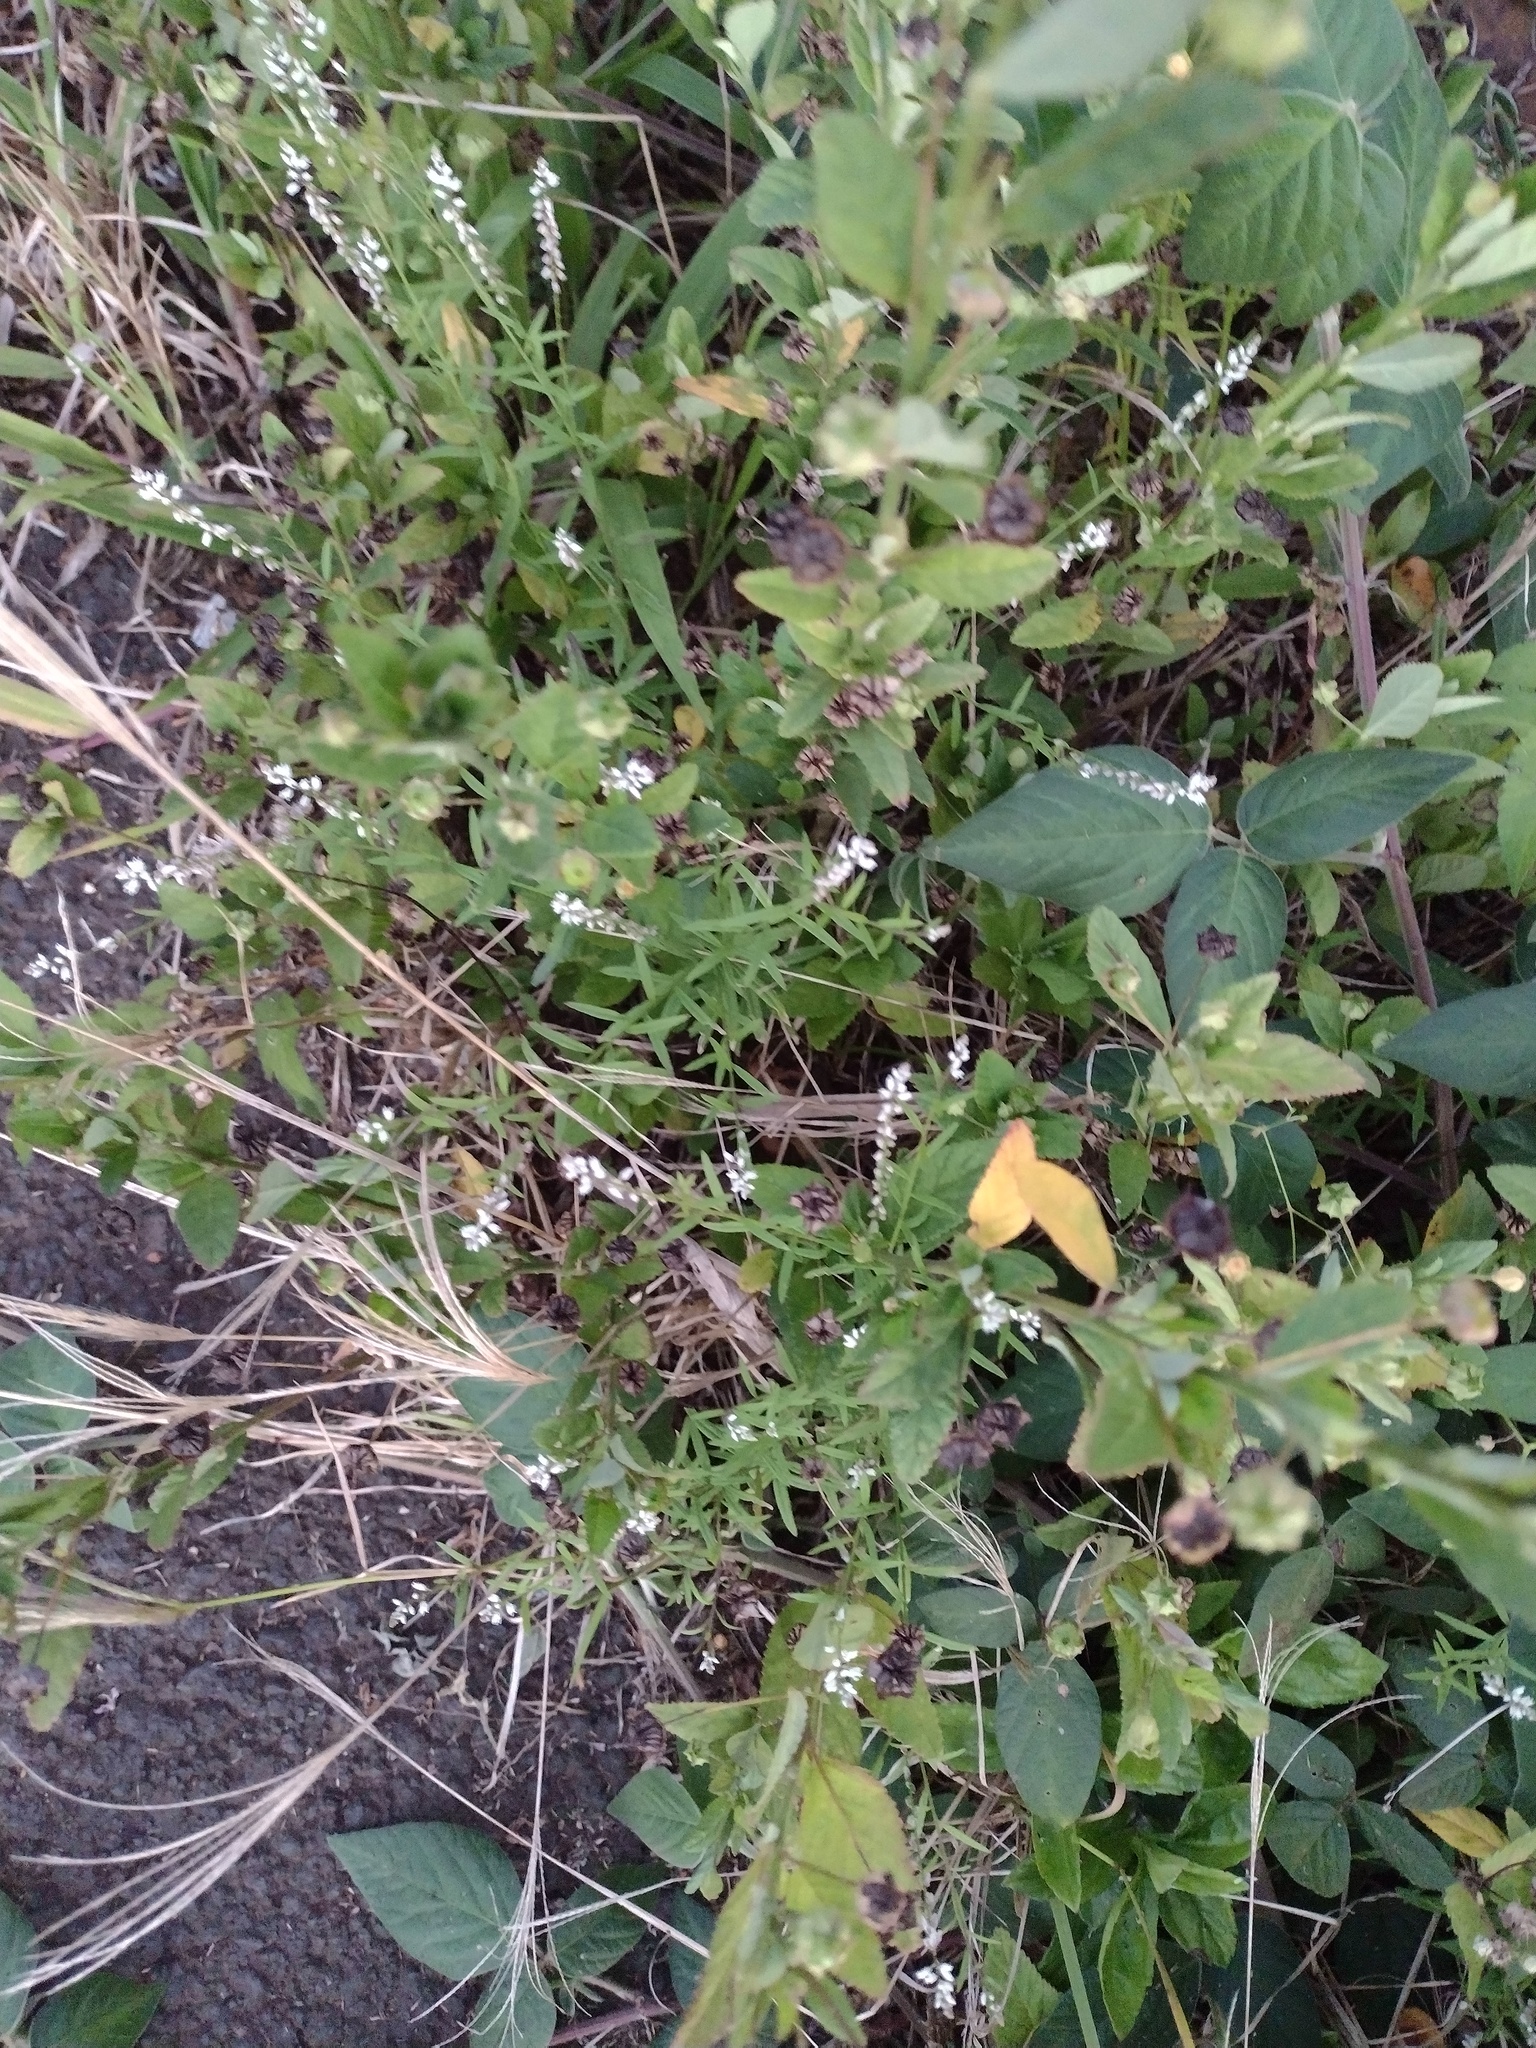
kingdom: Plantae
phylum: Tracheophyta
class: Magnoliopsida
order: Fabales
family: Polygalaceae
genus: Polygala
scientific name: Polygala paniculata
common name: Orosne
